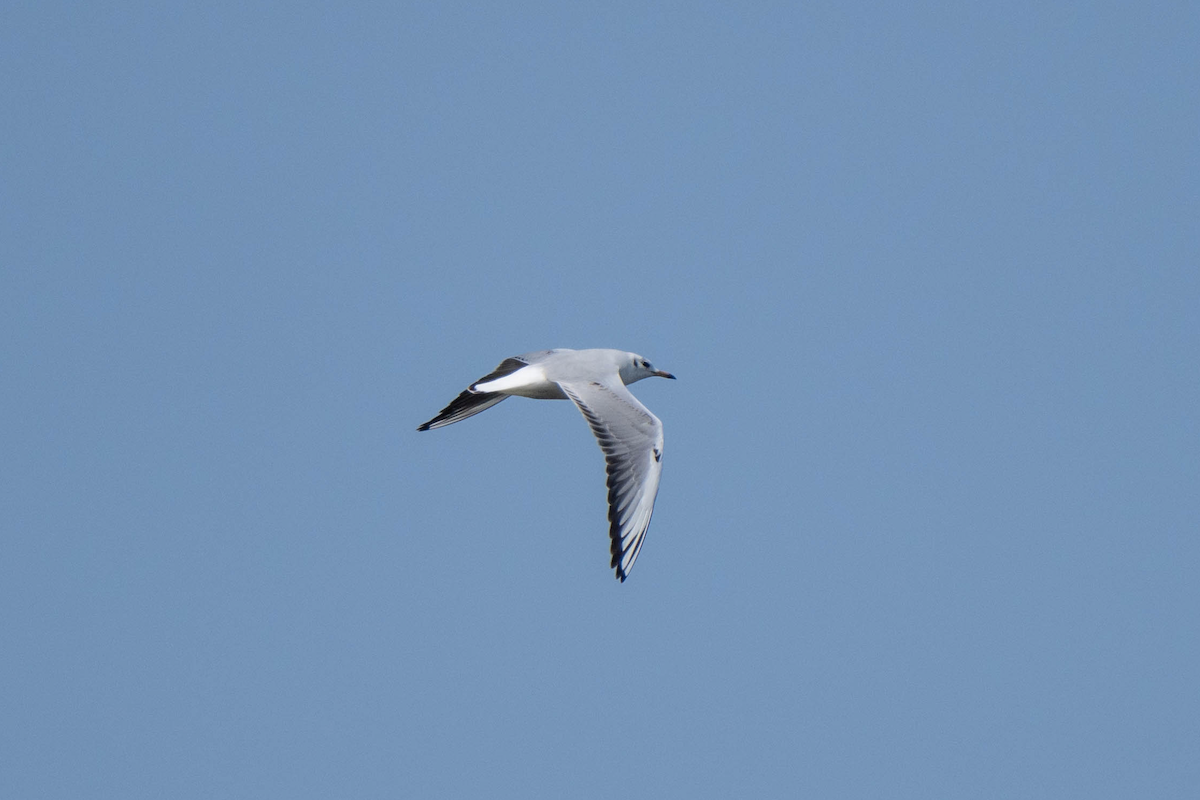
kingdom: Animalia
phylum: Chordata
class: Aves
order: Charadriiformes
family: Laridae
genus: Chroicocephalus
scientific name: Chroicocephalus ridibundus
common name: Black-headed gull
